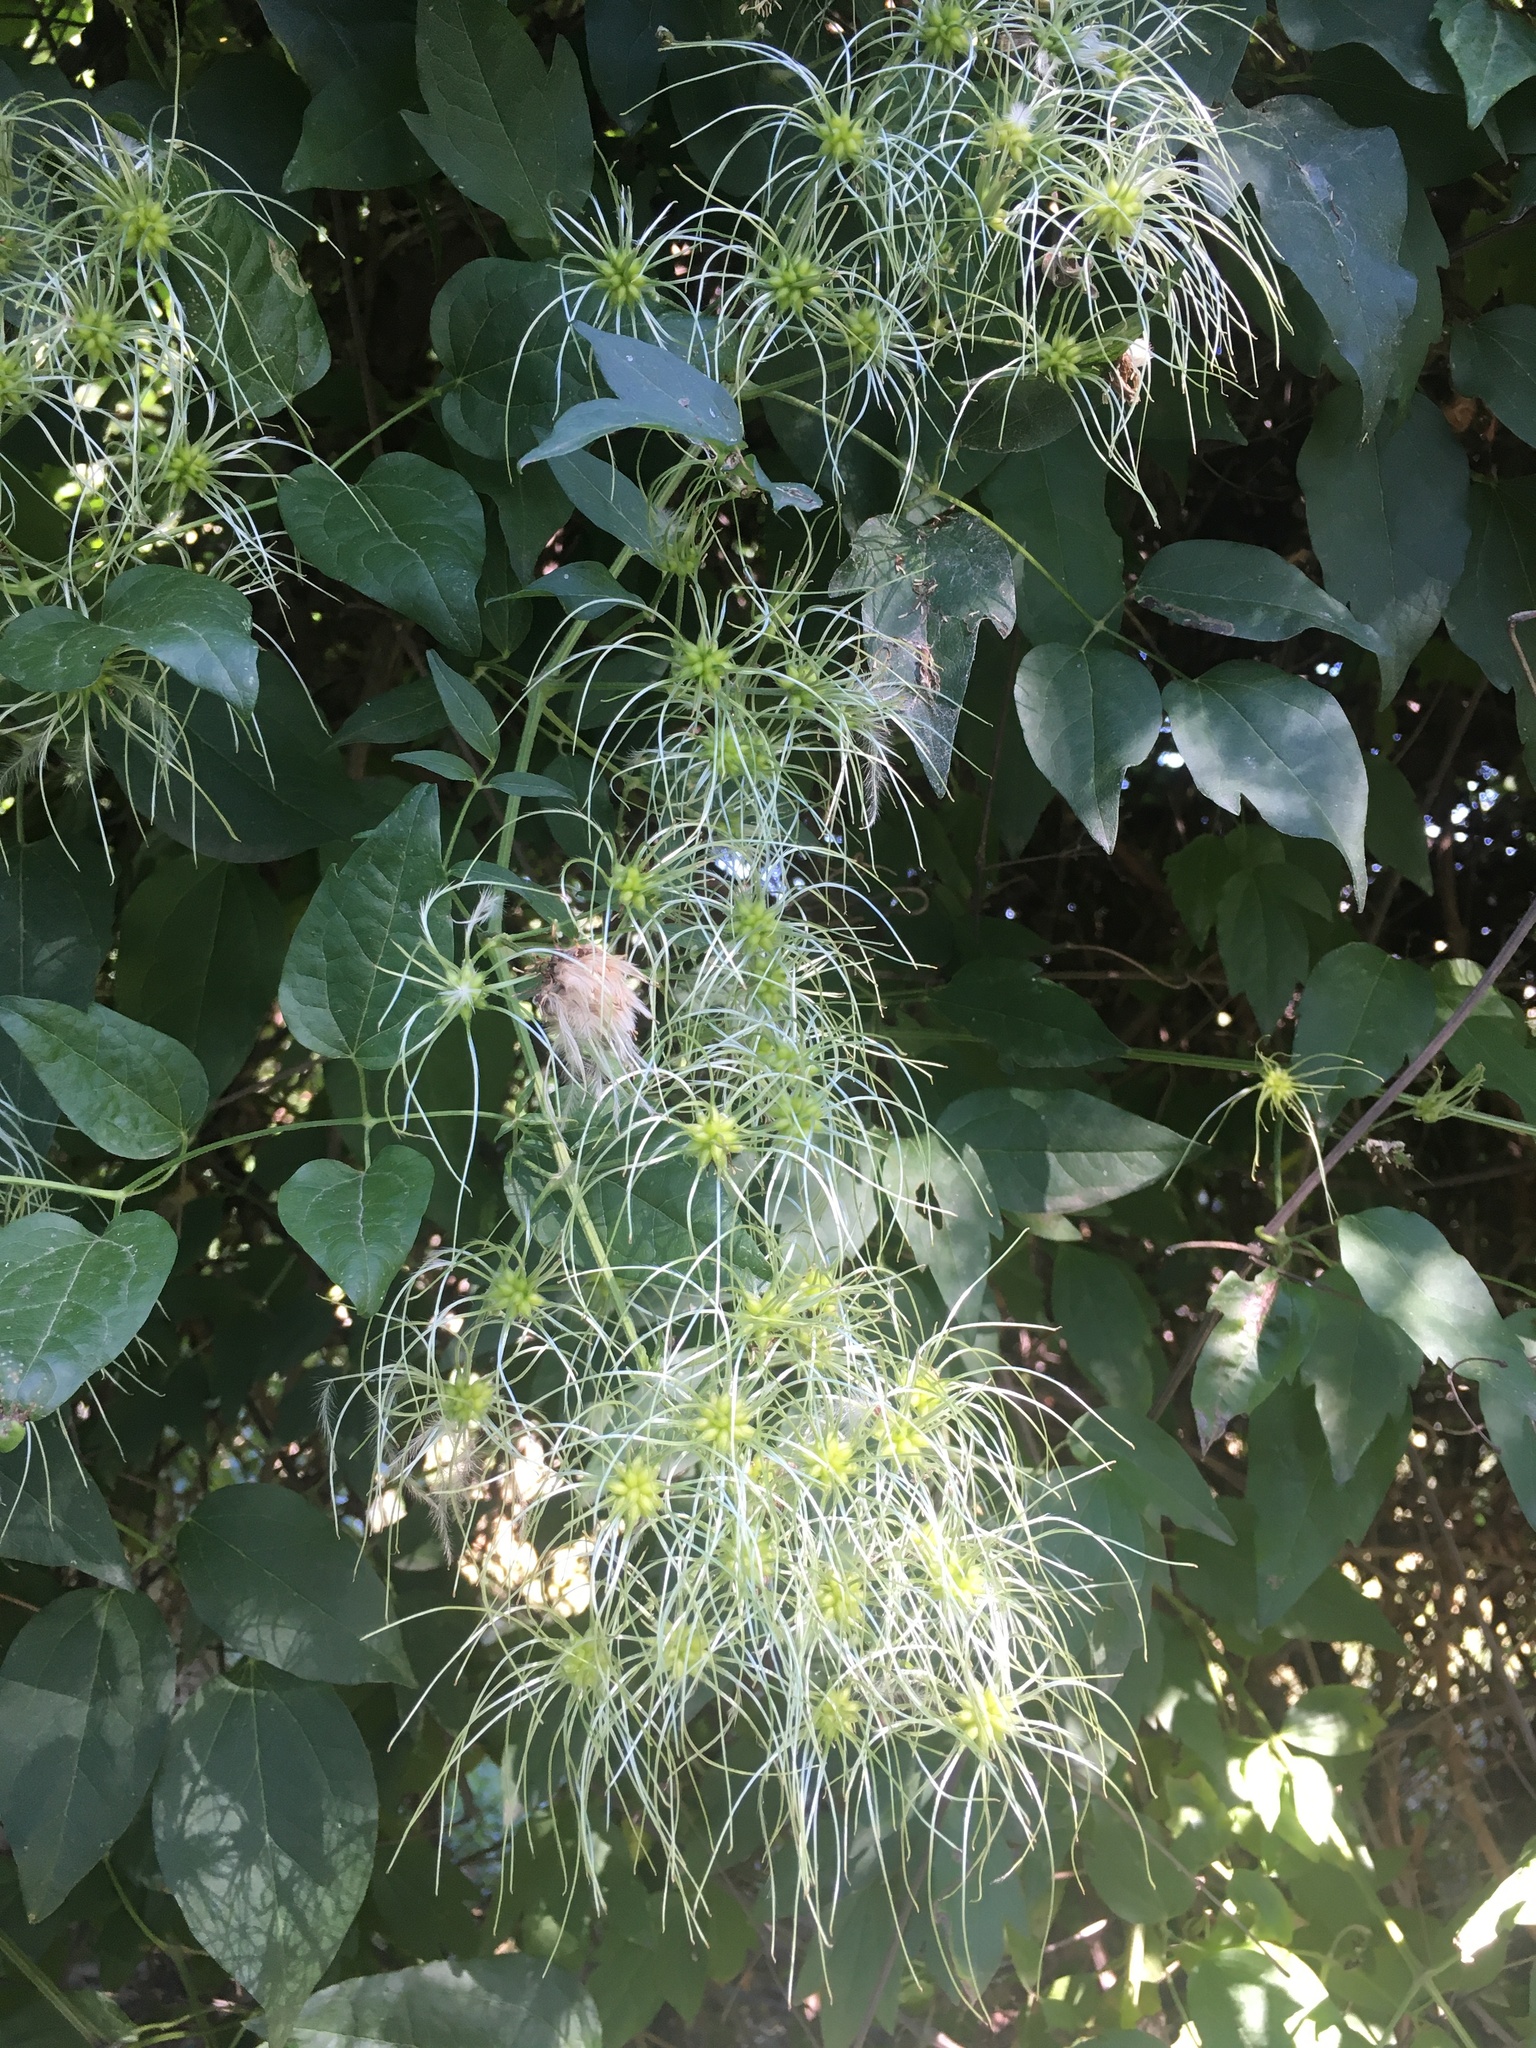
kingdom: Plantae
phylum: Tracheophyta
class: Magnoliopsida
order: Ranunculales
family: Ranunculaceae
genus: Clematis
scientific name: Clematis vitalba
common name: Evergreen clematis
